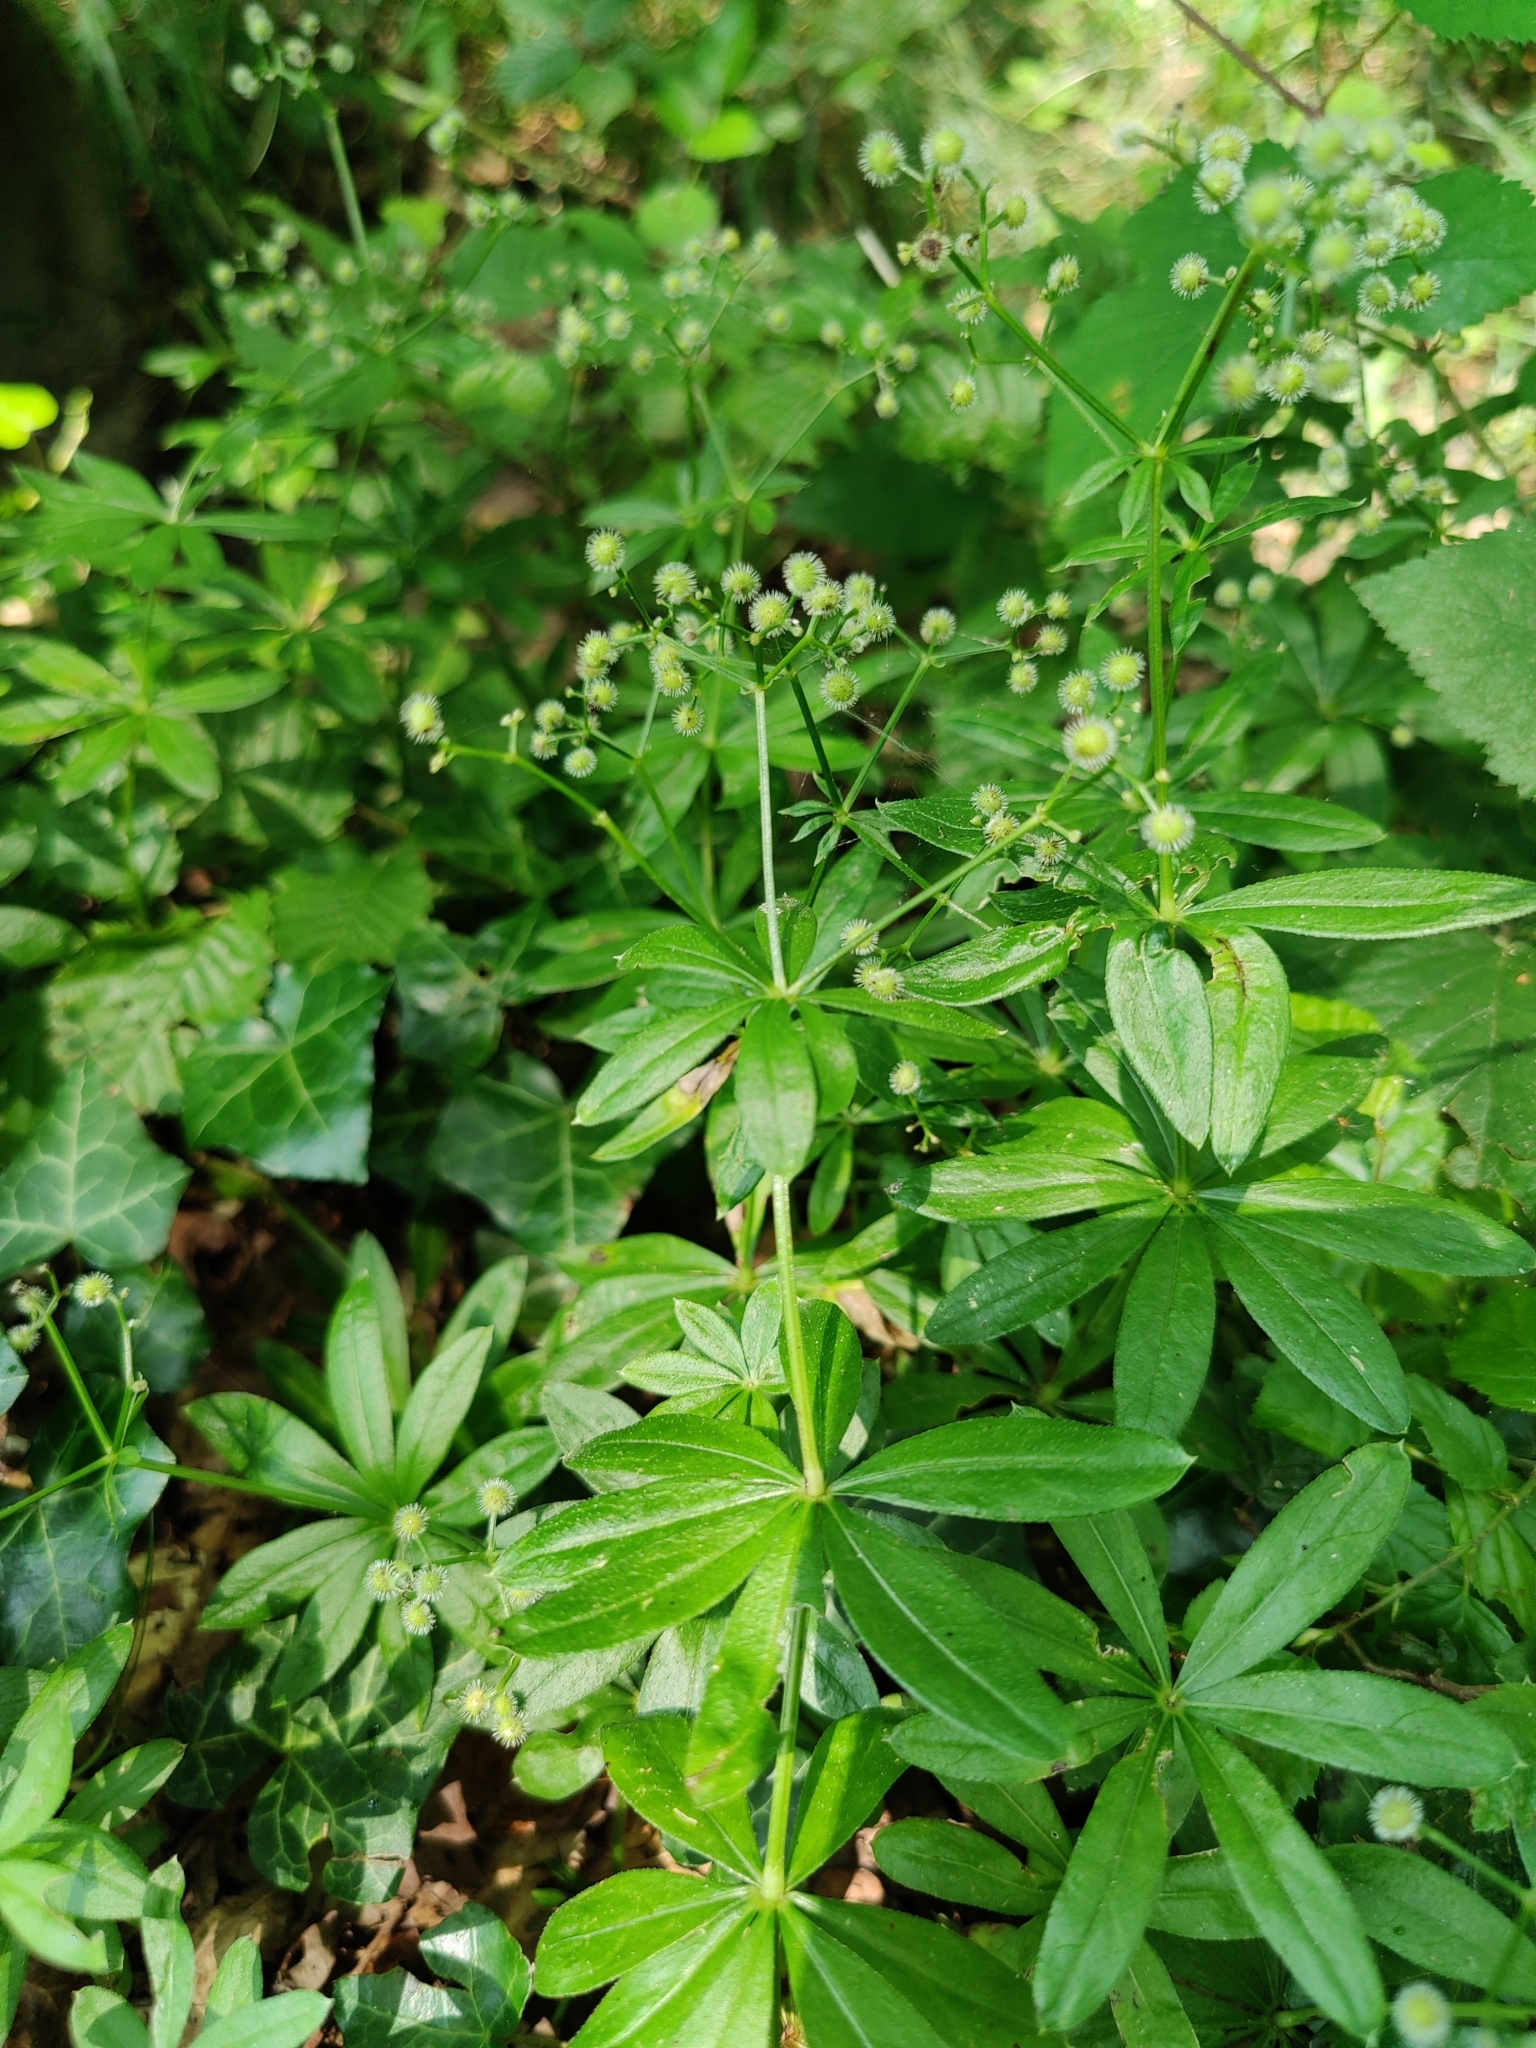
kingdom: Plantae
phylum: Tracheophyta
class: Magnoliopsida
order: Gentianales
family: Rubiaceae
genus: Galium
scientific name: Galium odoratum
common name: Sweet woodruff
